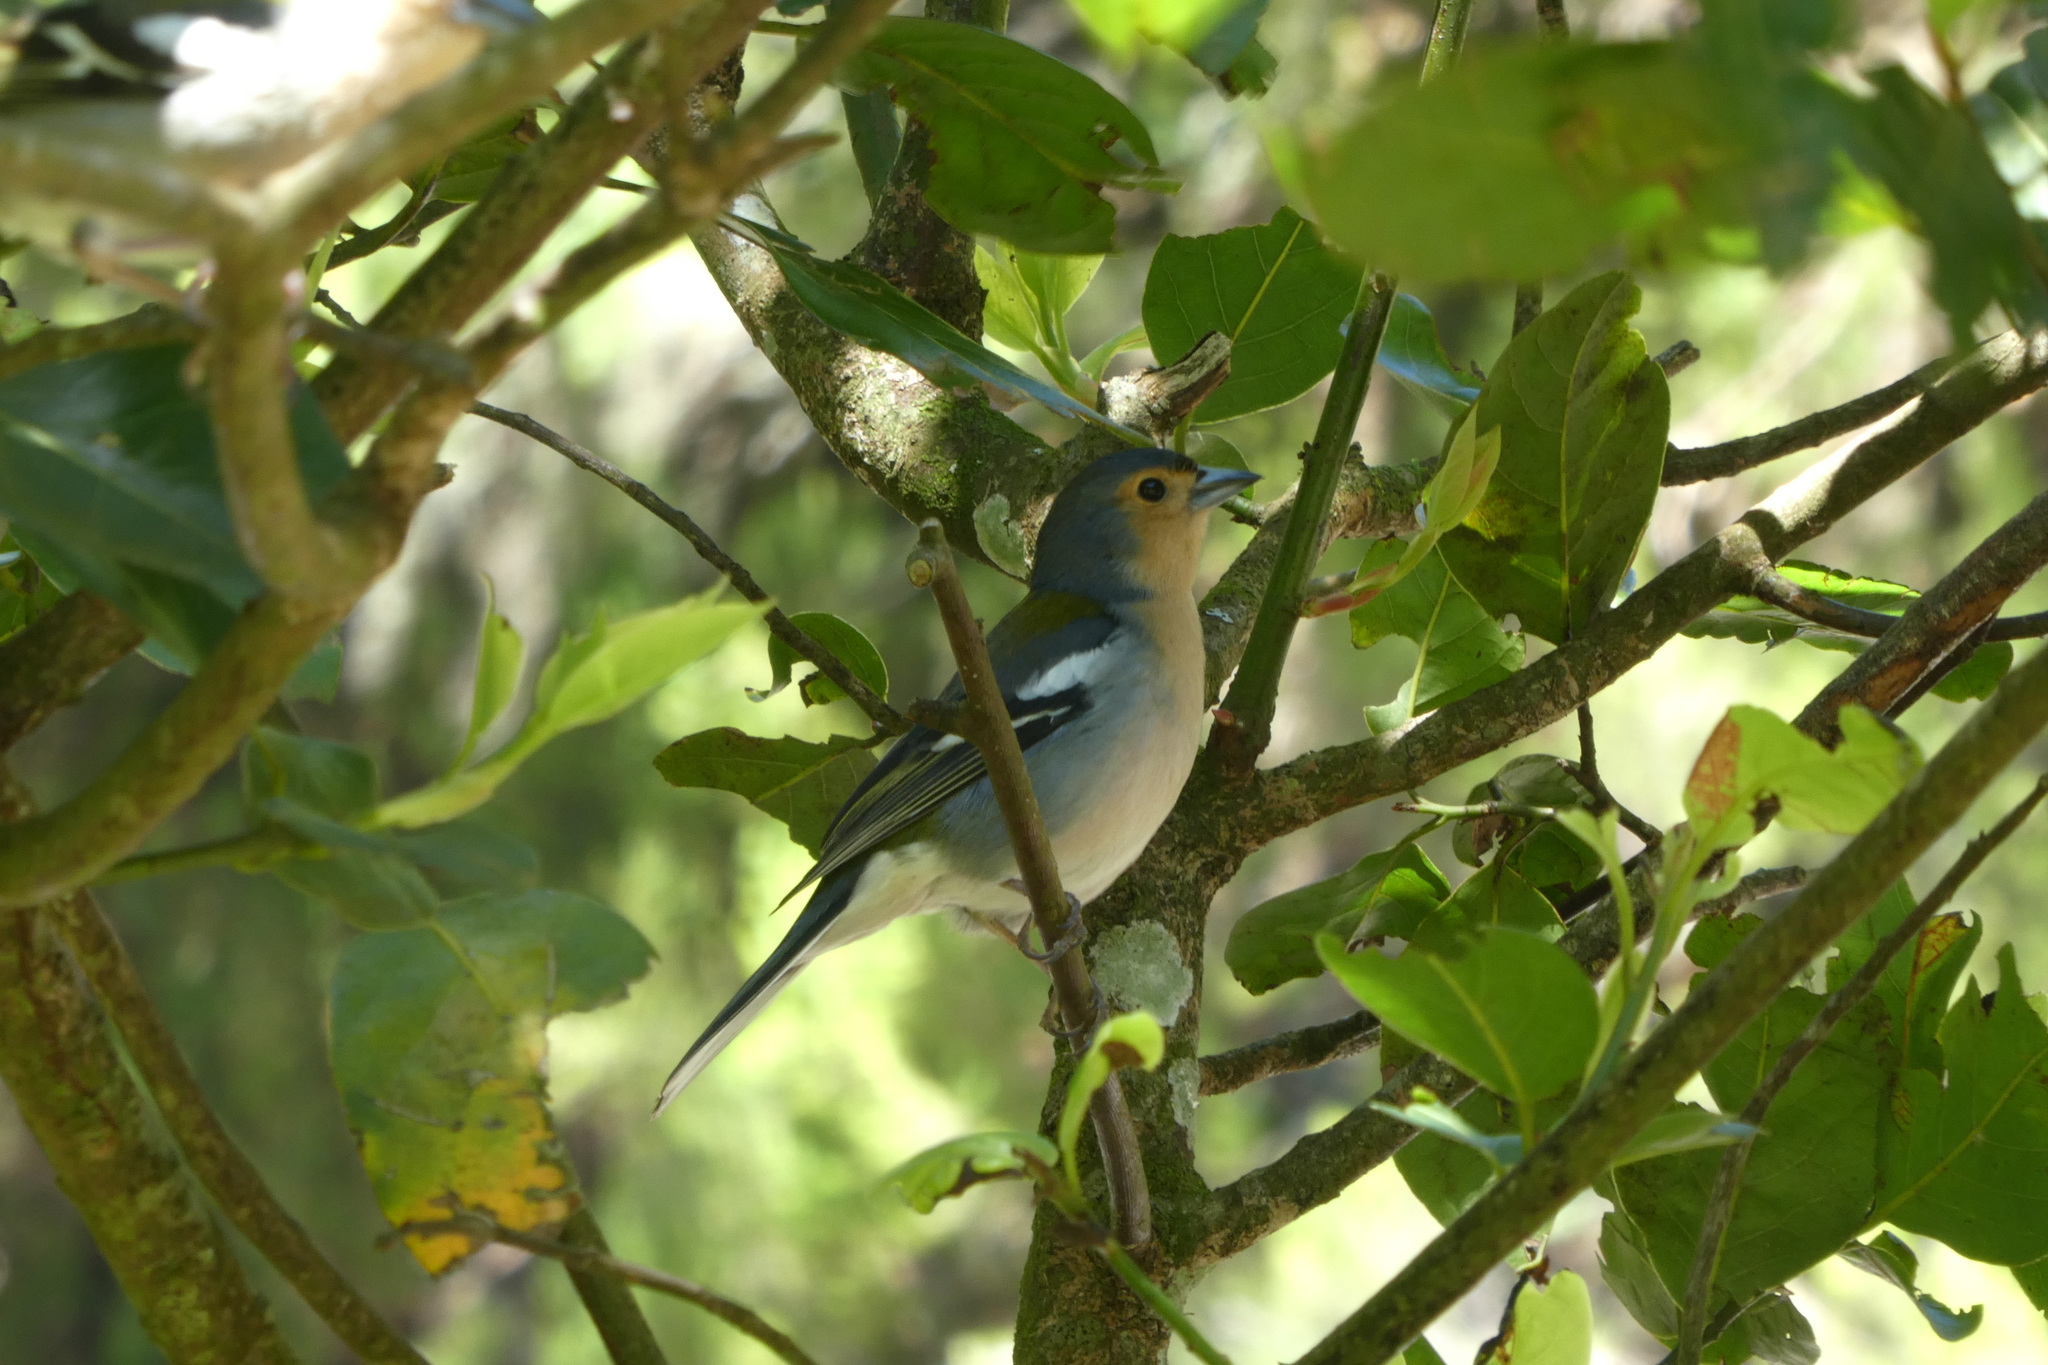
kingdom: Animalia
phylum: Chordata
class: Aves
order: Passeriformes
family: Fringillidae
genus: Fringilla
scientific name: Fringilla maderensis
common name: Madeira chaffinch
